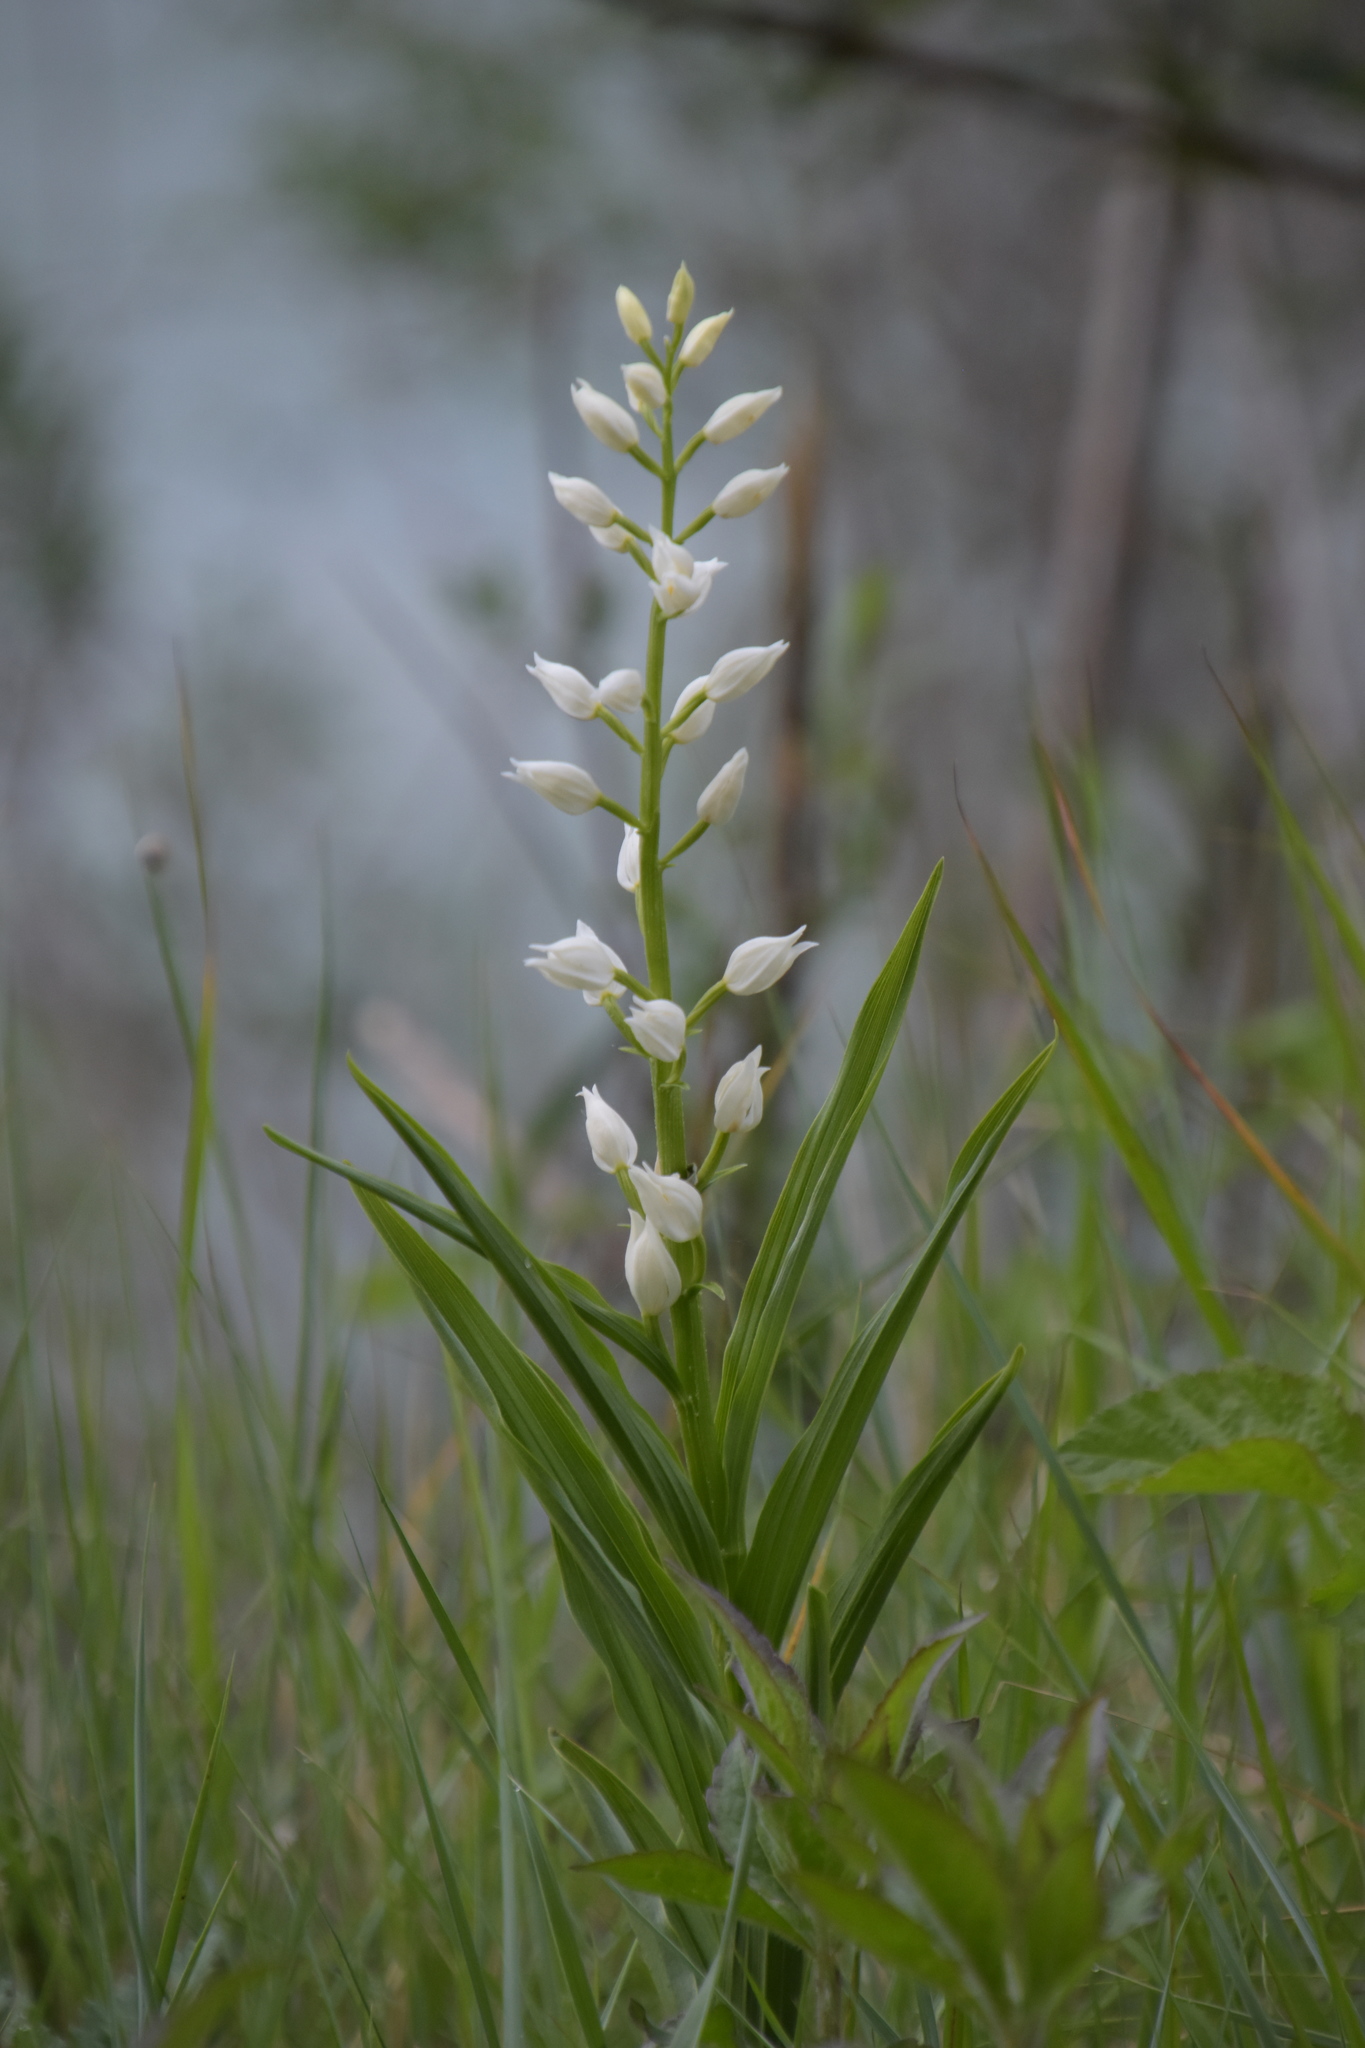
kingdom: Plantae
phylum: Tracheophyta
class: Liliopsida
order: Asparagales
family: Orchidaceae
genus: Cephalanthera
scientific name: Cephalanthera longifolia
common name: Narrow-leaved helleborine
